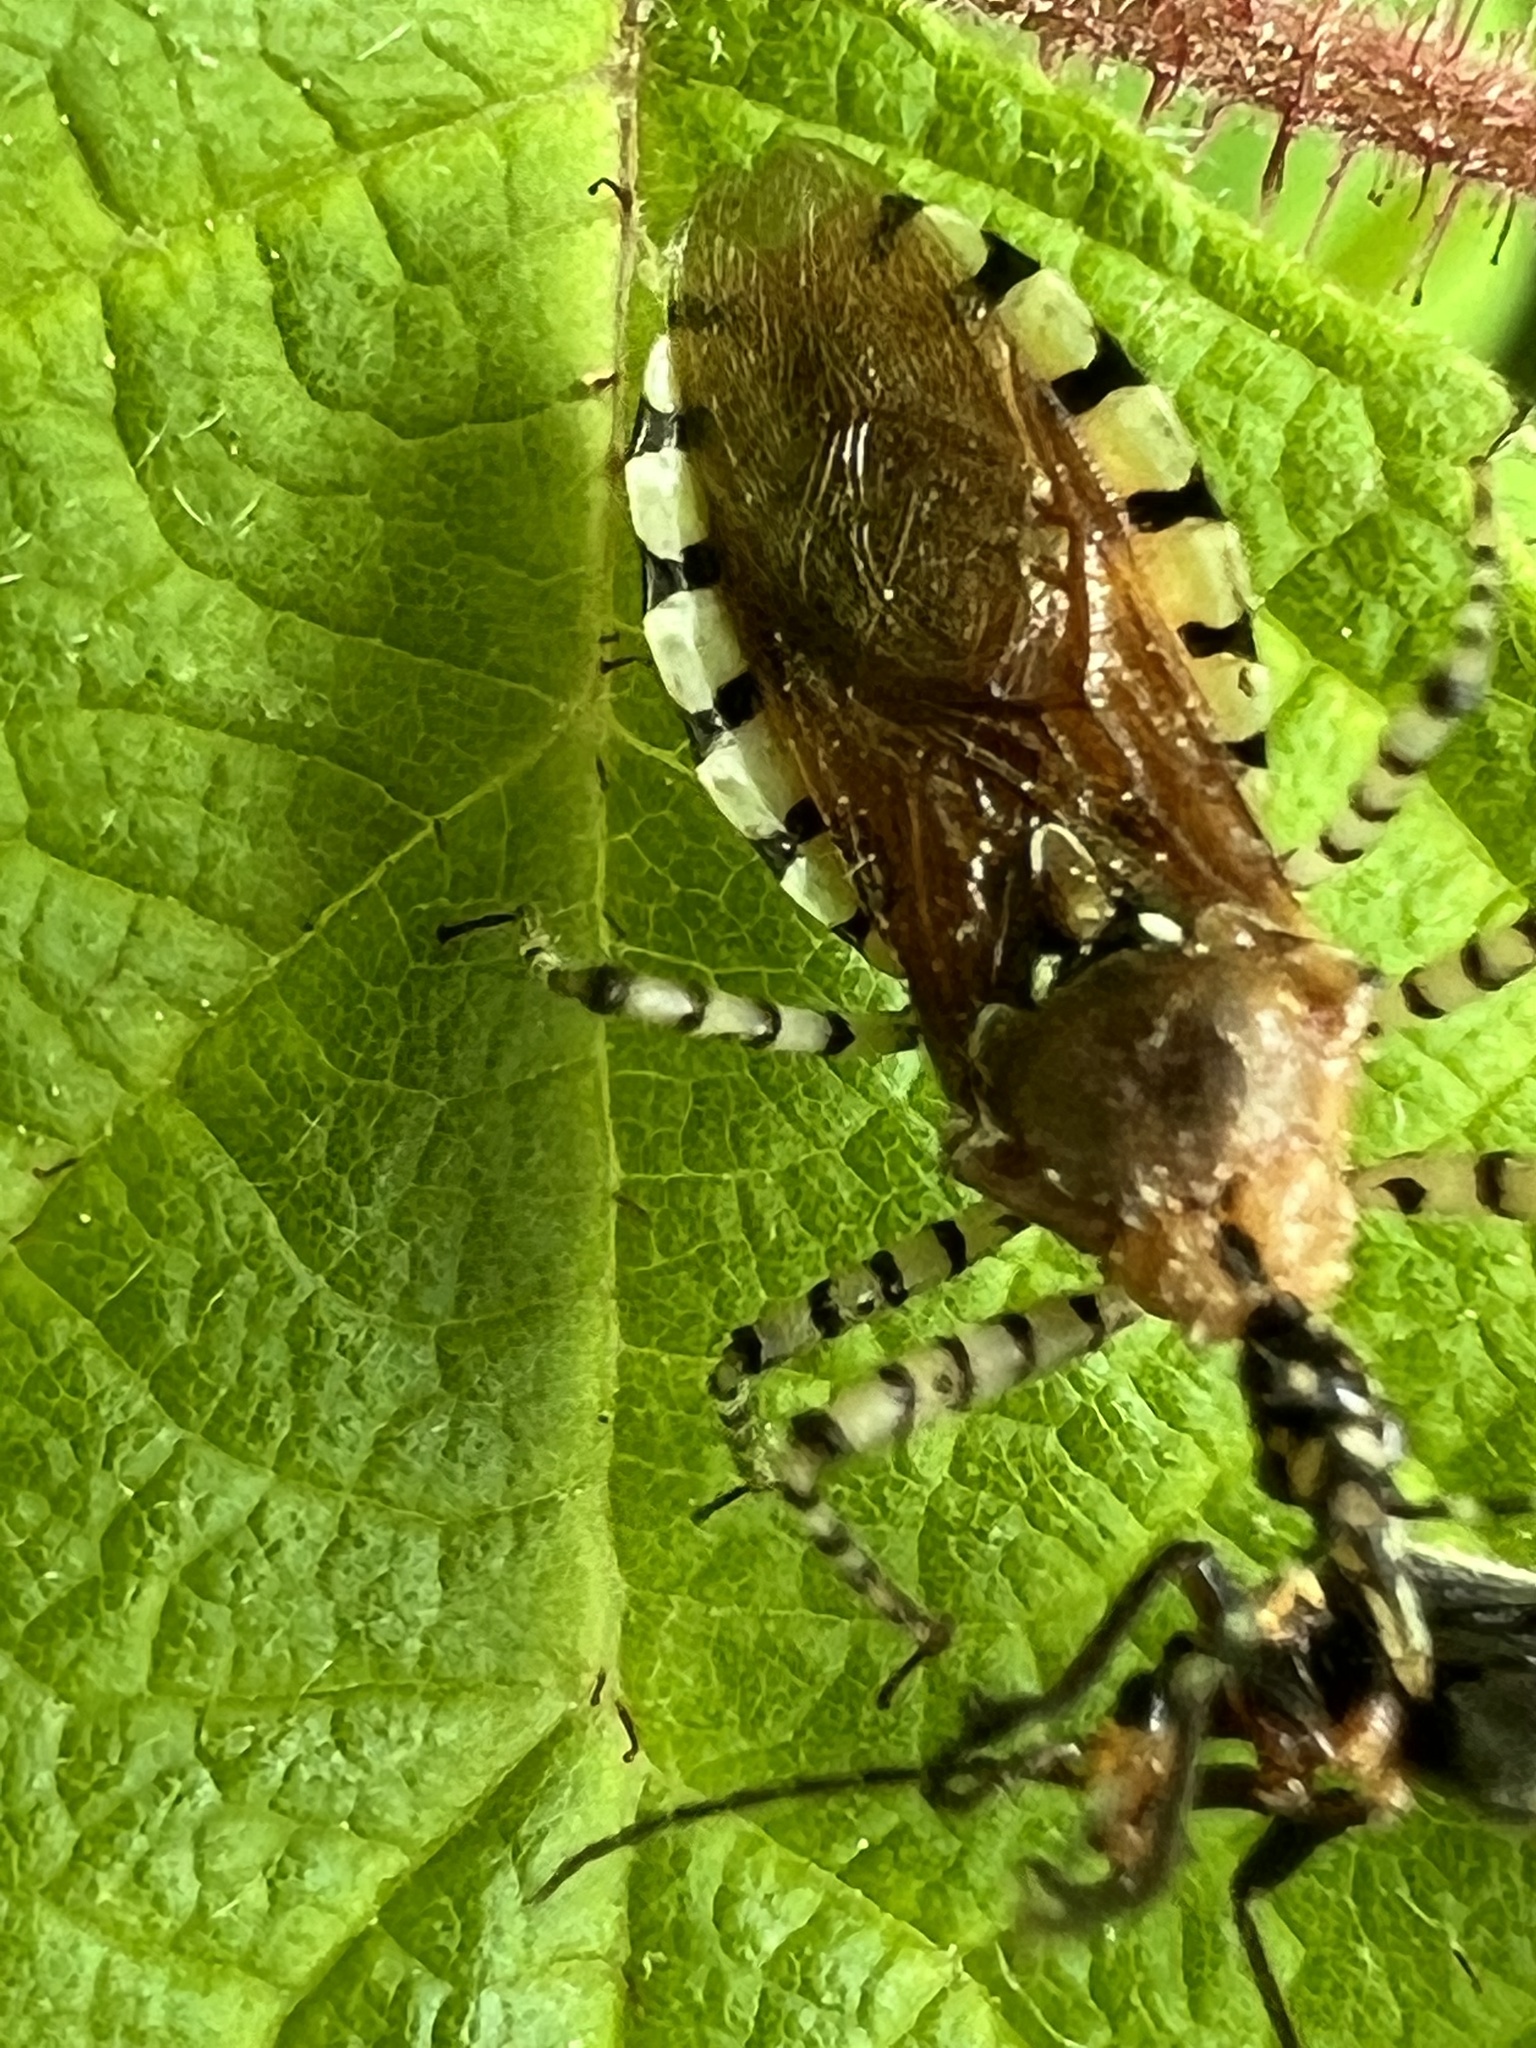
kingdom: Animalia
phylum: Arthropoda
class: Insecta
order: Hemiptera
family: Reduviidae
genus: Pselliopus
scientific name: Pselliopus cinctus
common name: Ringed assassin bug
